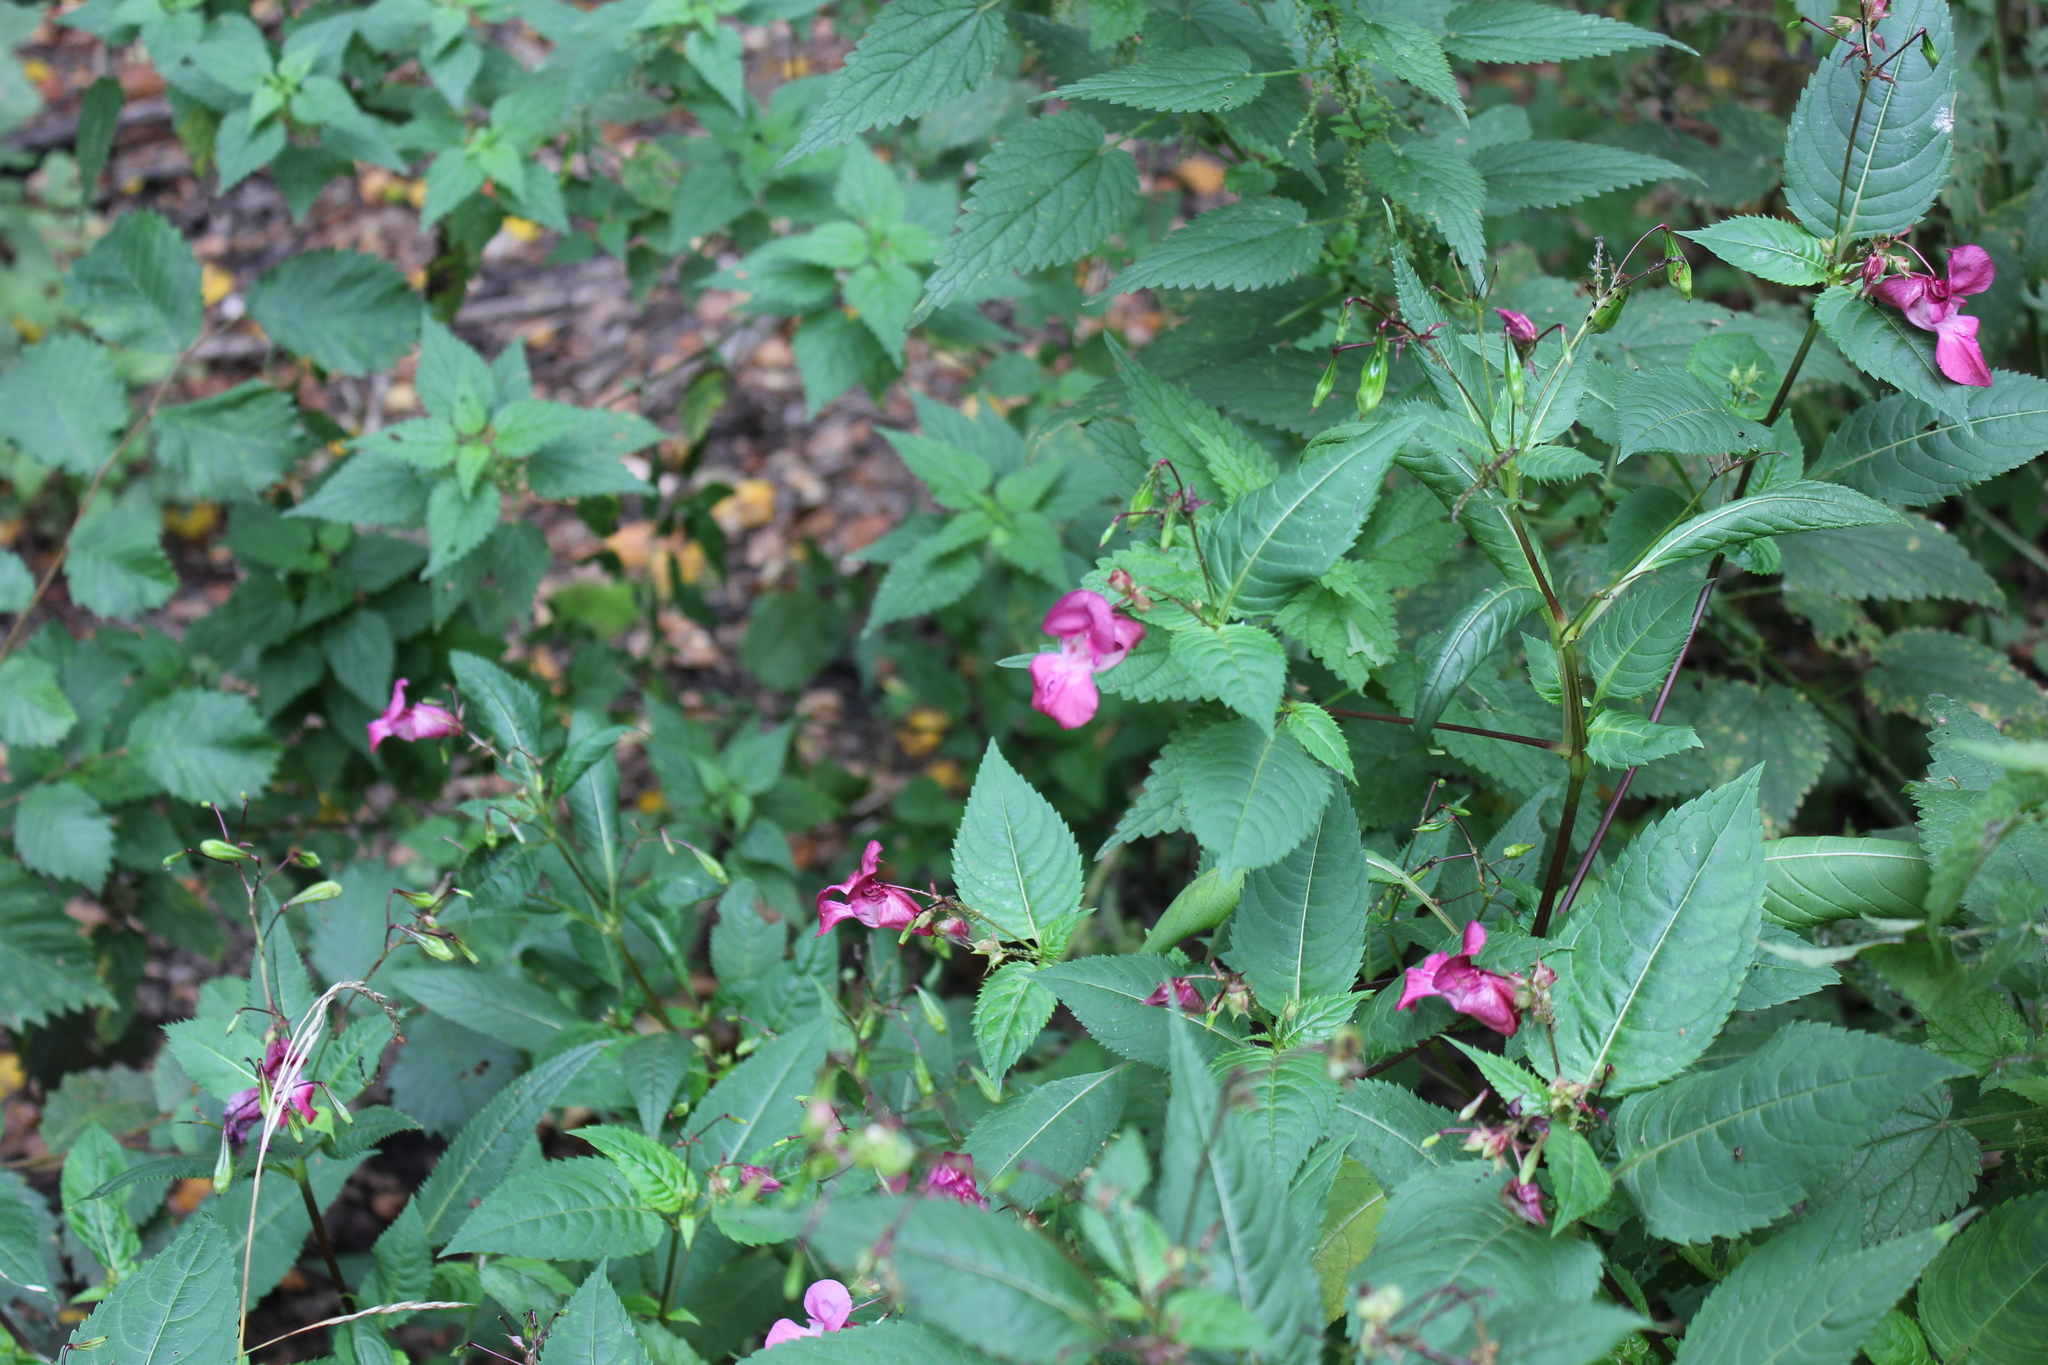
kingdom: Plantae
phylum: Tracheophyta
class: Magnoliopsida
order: Ericales
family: Balsaminaceae
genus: Impatiens
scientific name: Impatiens glandulifera
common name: Himalayan balsam
